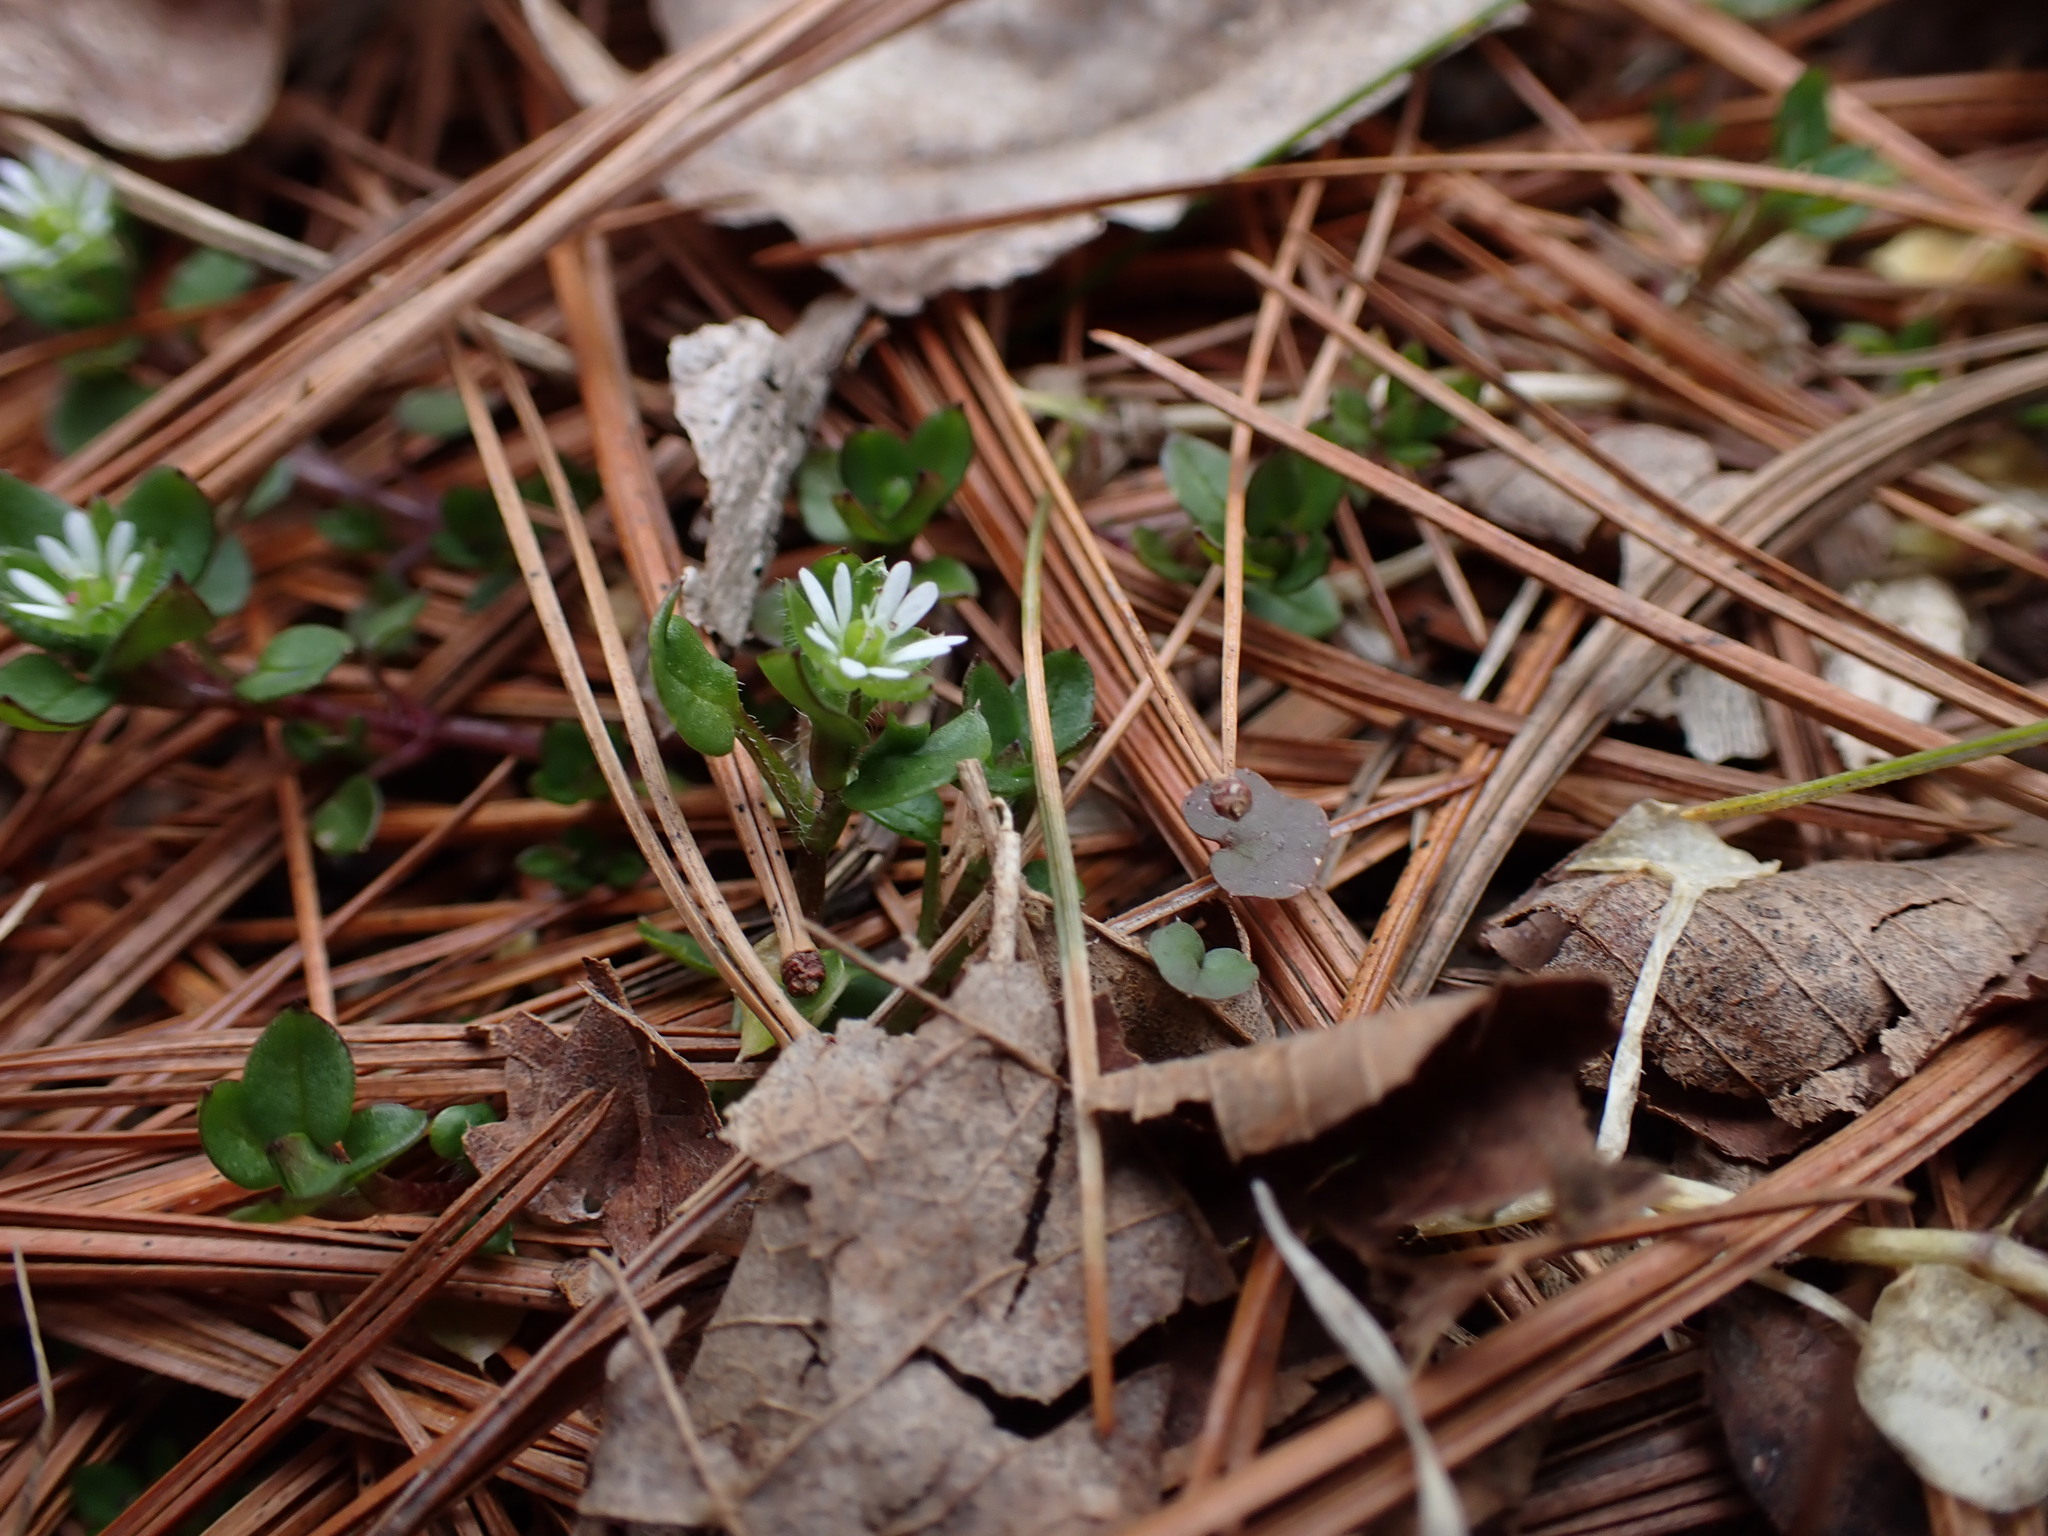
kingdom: Plantae
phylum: Tracheophyta
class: Magnoliopsida
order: Caryophyllales
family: Caryophyllaceae
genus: Stellaria
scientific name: Stellaria media
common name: Common chickweed
